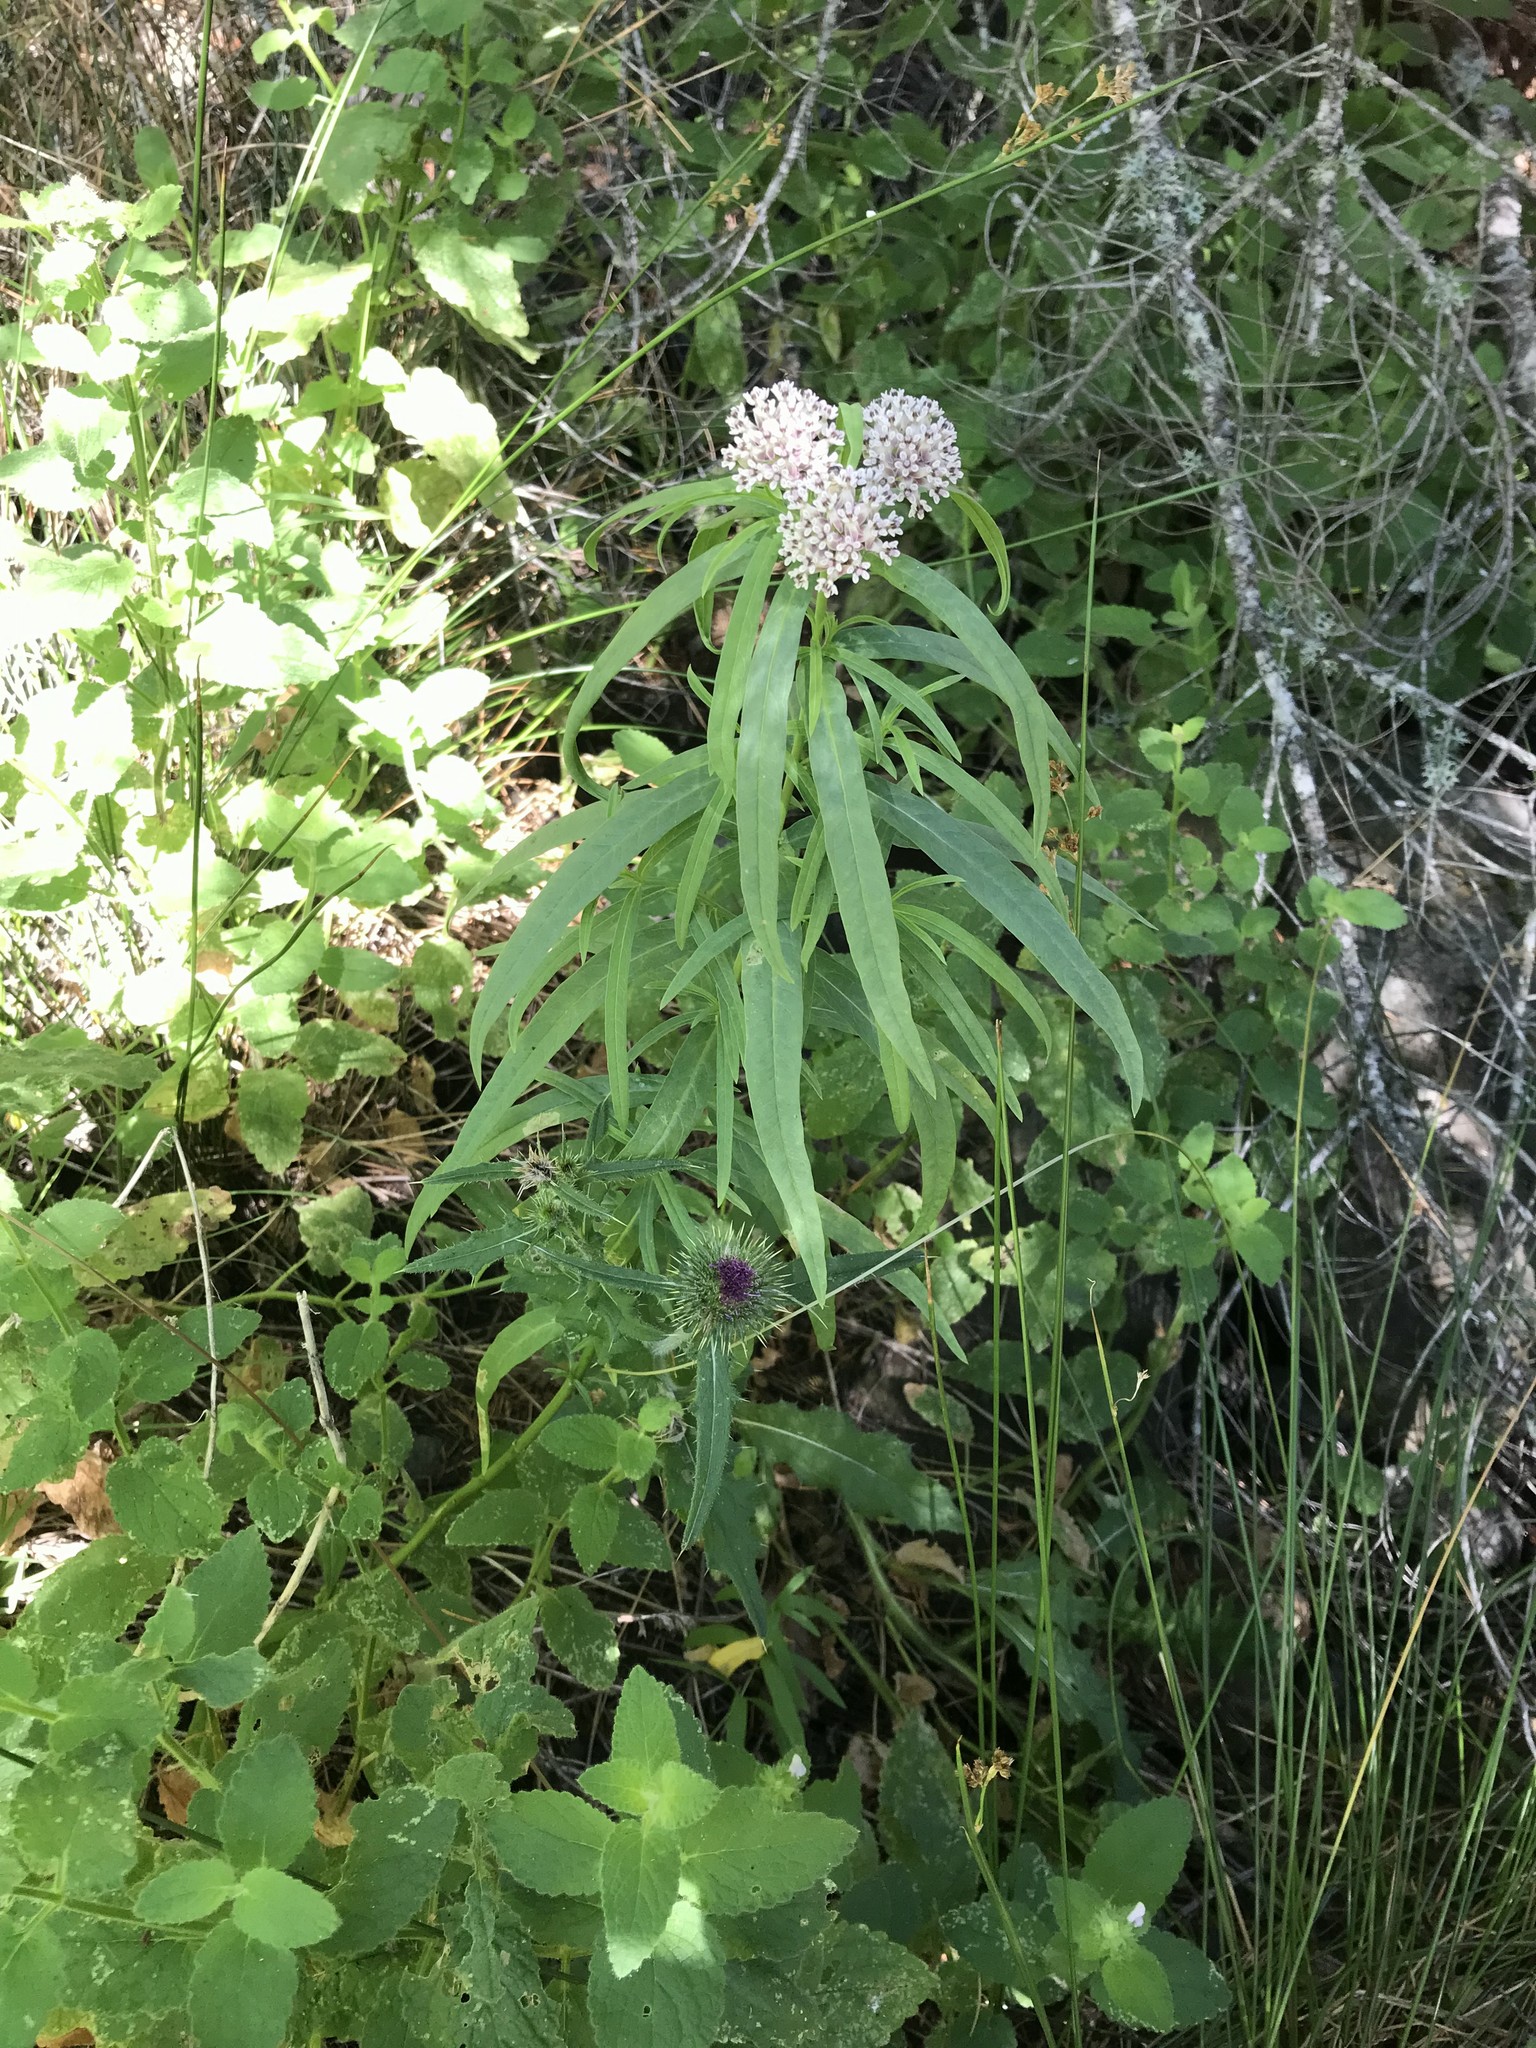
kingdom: Plantae
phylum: Tracheophyta
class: Magnoliopsida
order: Gentianales
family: Apocynaceae
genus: Asclepias
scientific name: Asclepias fascicularis
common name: Mexican milkweed
